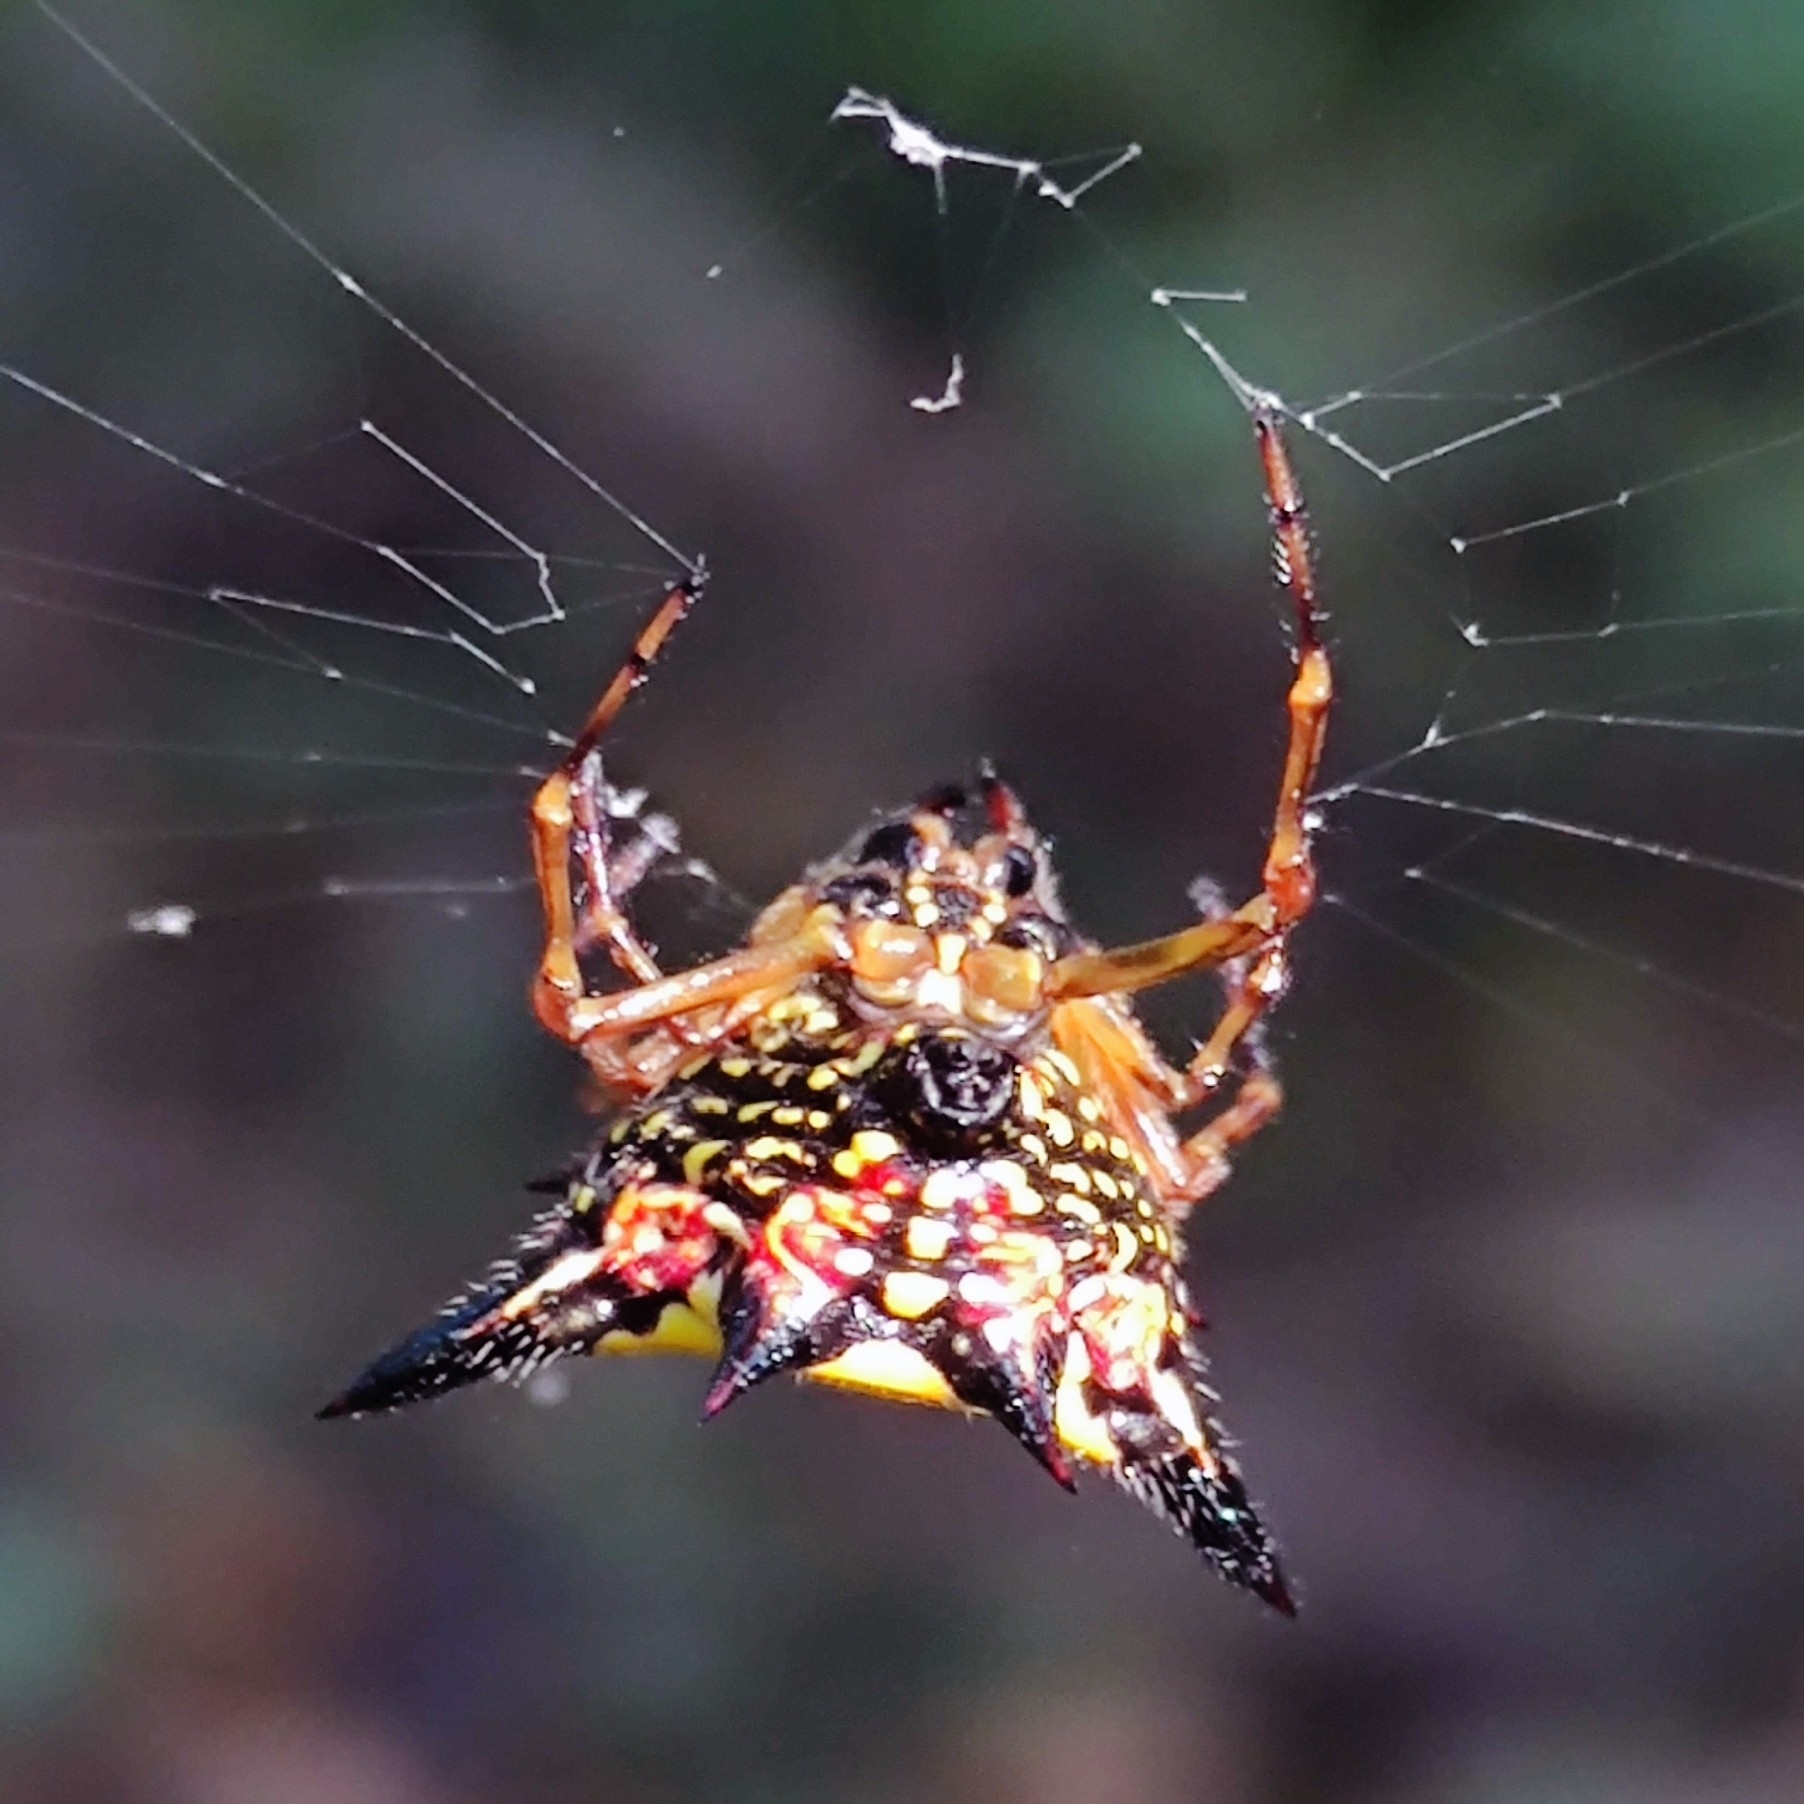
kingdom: Animalia
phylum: Arthropoda
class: Arachnida
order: Araneae
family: Araneidae
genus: Macracantha
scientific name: Macracantha hasselti
